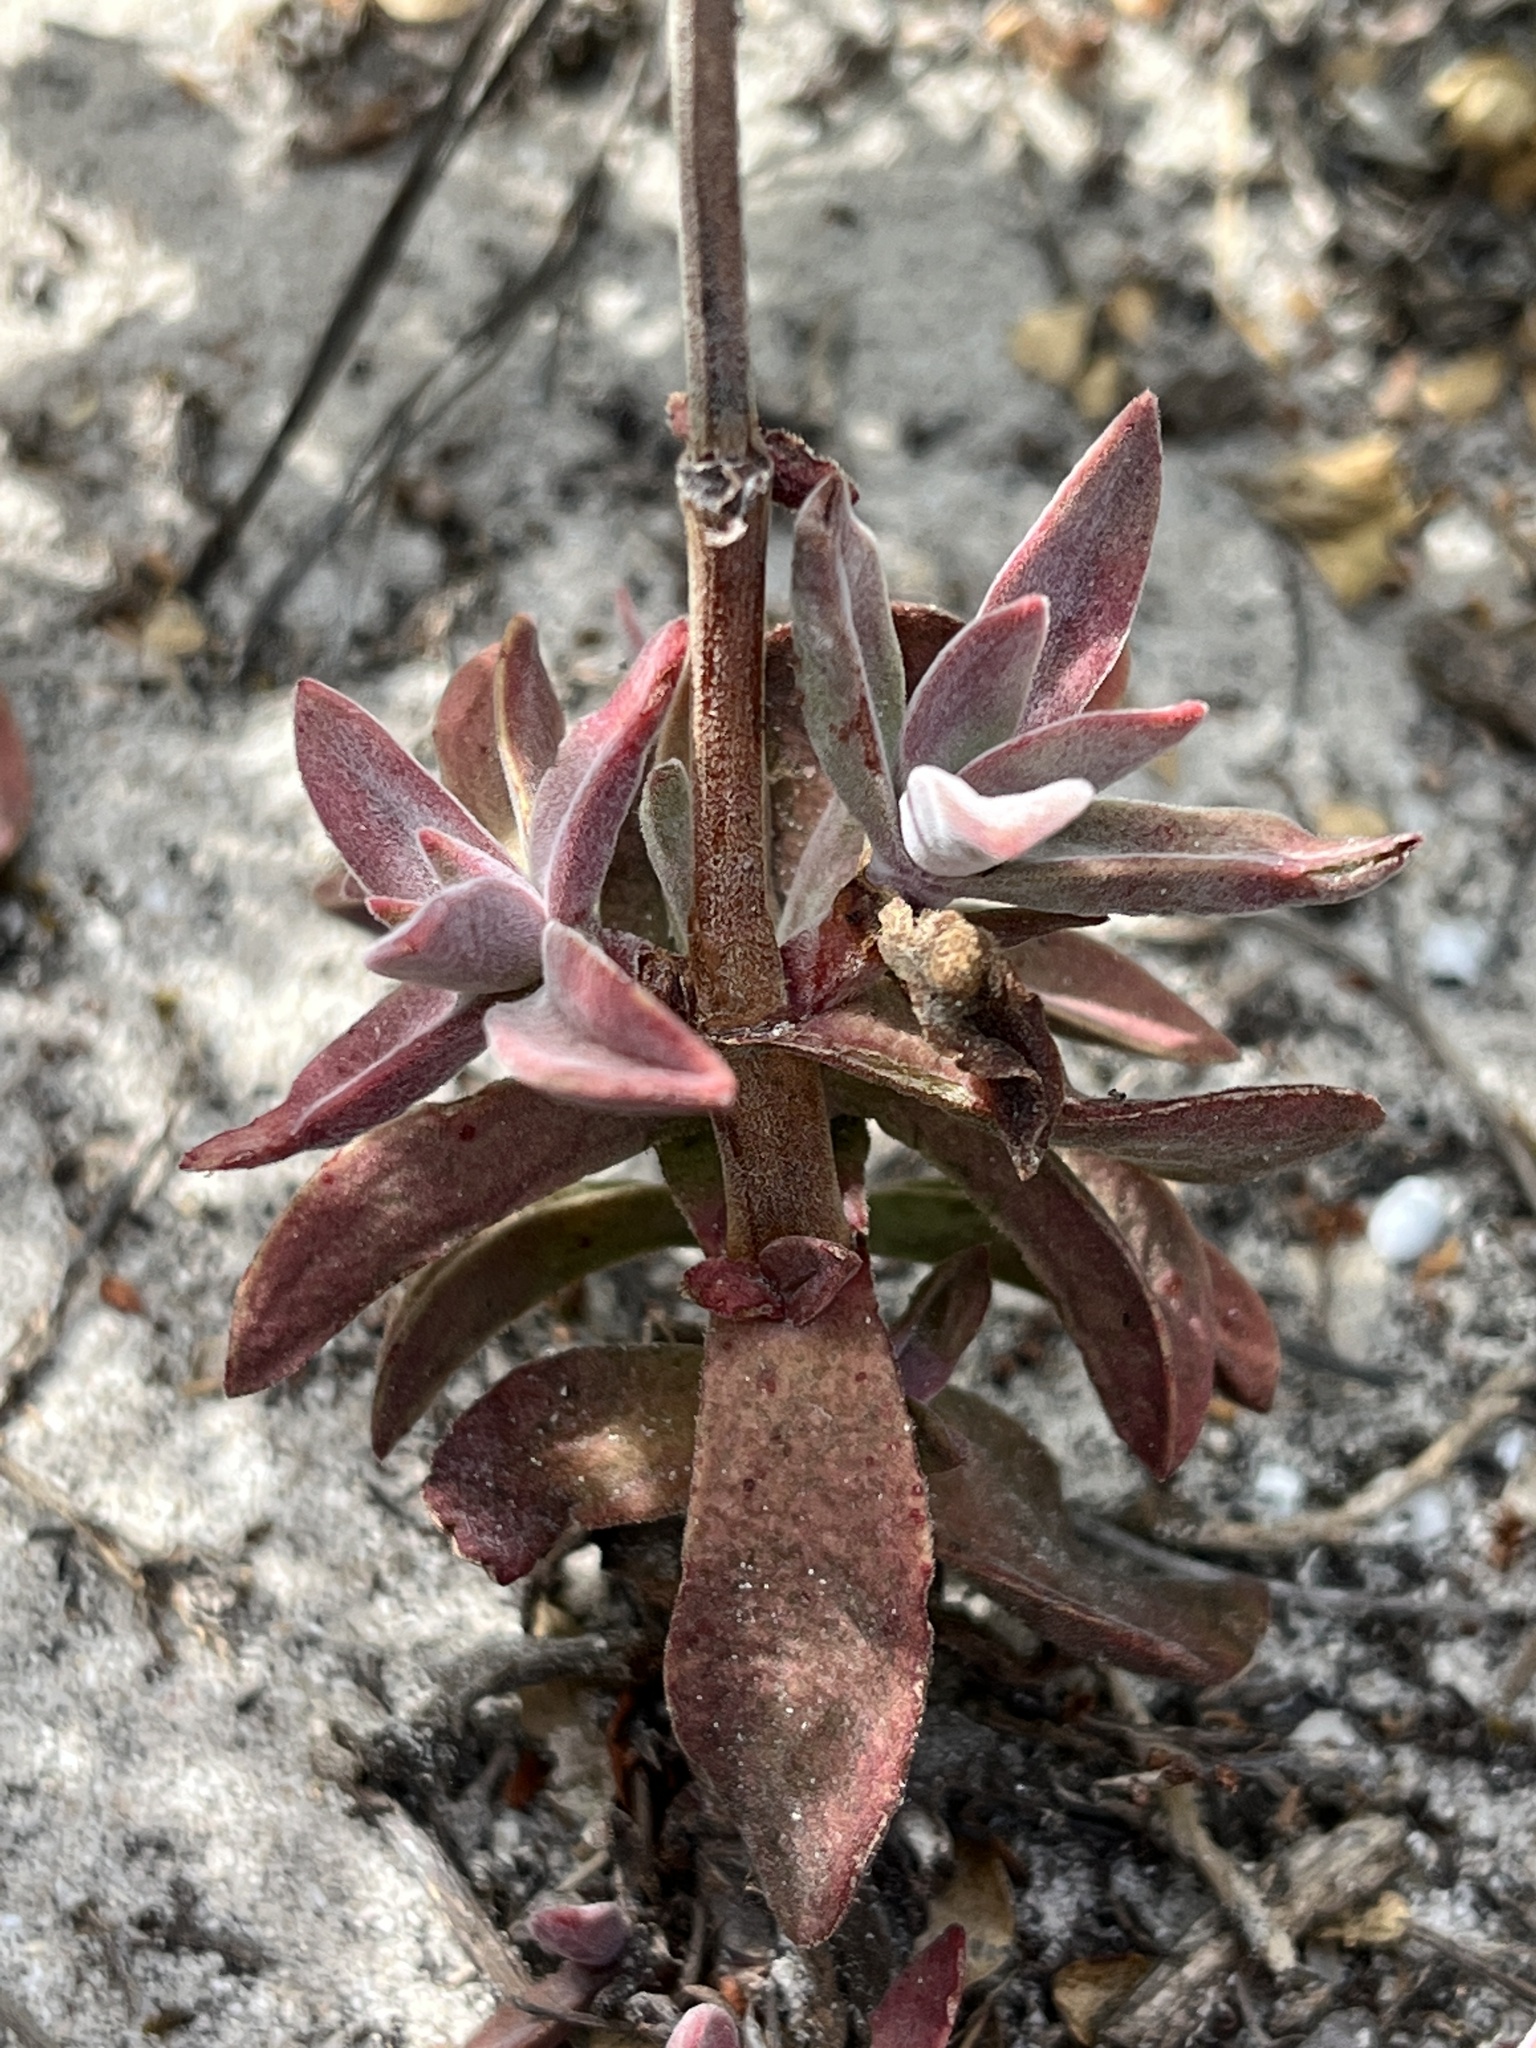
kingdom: Plantae
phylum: Tracheophyta
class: Magnoliopsida
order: Saxifragales
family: Crassulaceae
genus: Crassula
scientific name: Crassula pubescens
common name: Jersey pigmyweed
